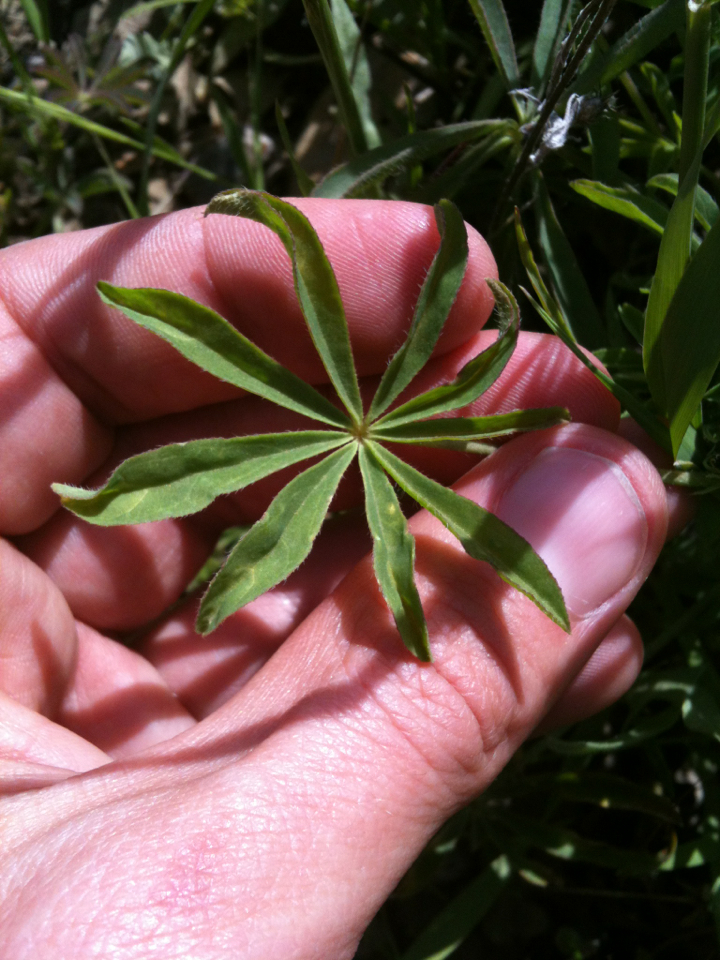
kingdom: Plantae
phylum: Tracheophyta
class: Magnoliopsida
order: Fabales
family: Fabaceae
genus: Lupinus
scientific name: Lupinus microcarpus
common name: Chick lupine
